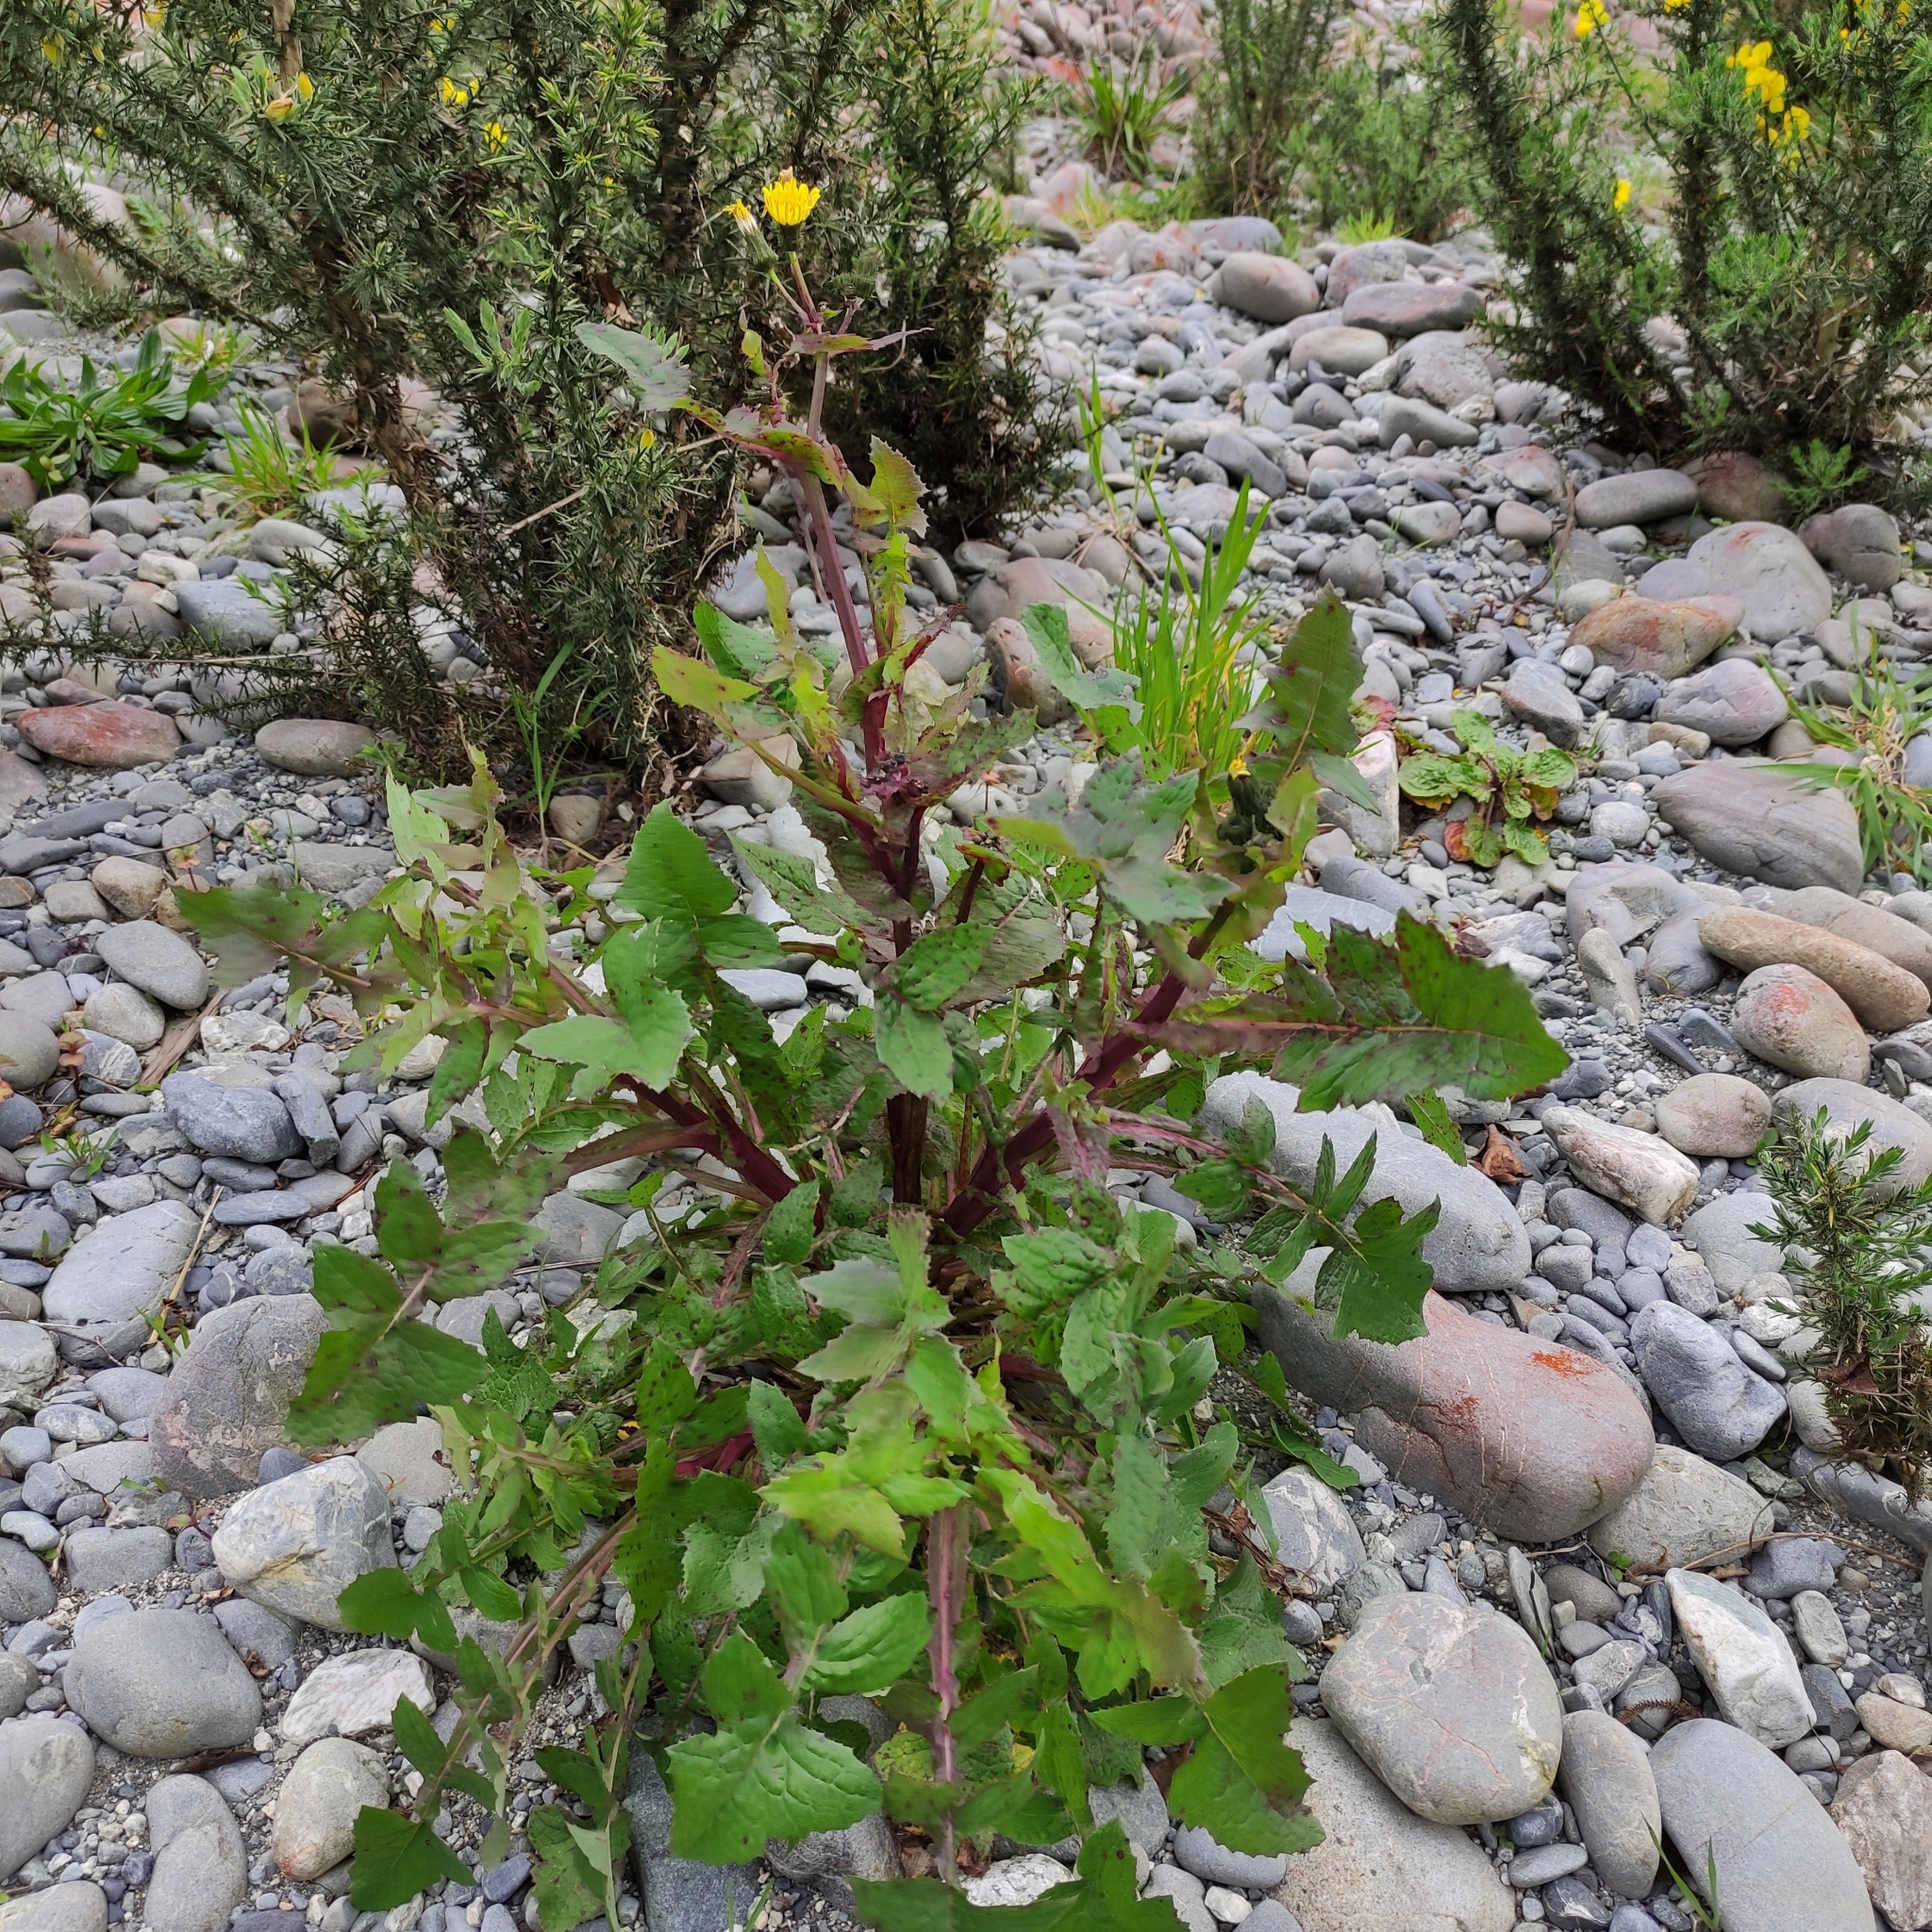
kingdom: Plantae
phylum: Tracheophyta
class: Magnoliopsida
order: Asterales
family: Asteraceae
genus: Sonchus
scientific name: Sonchus oleraceus
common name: Common sowthistle
